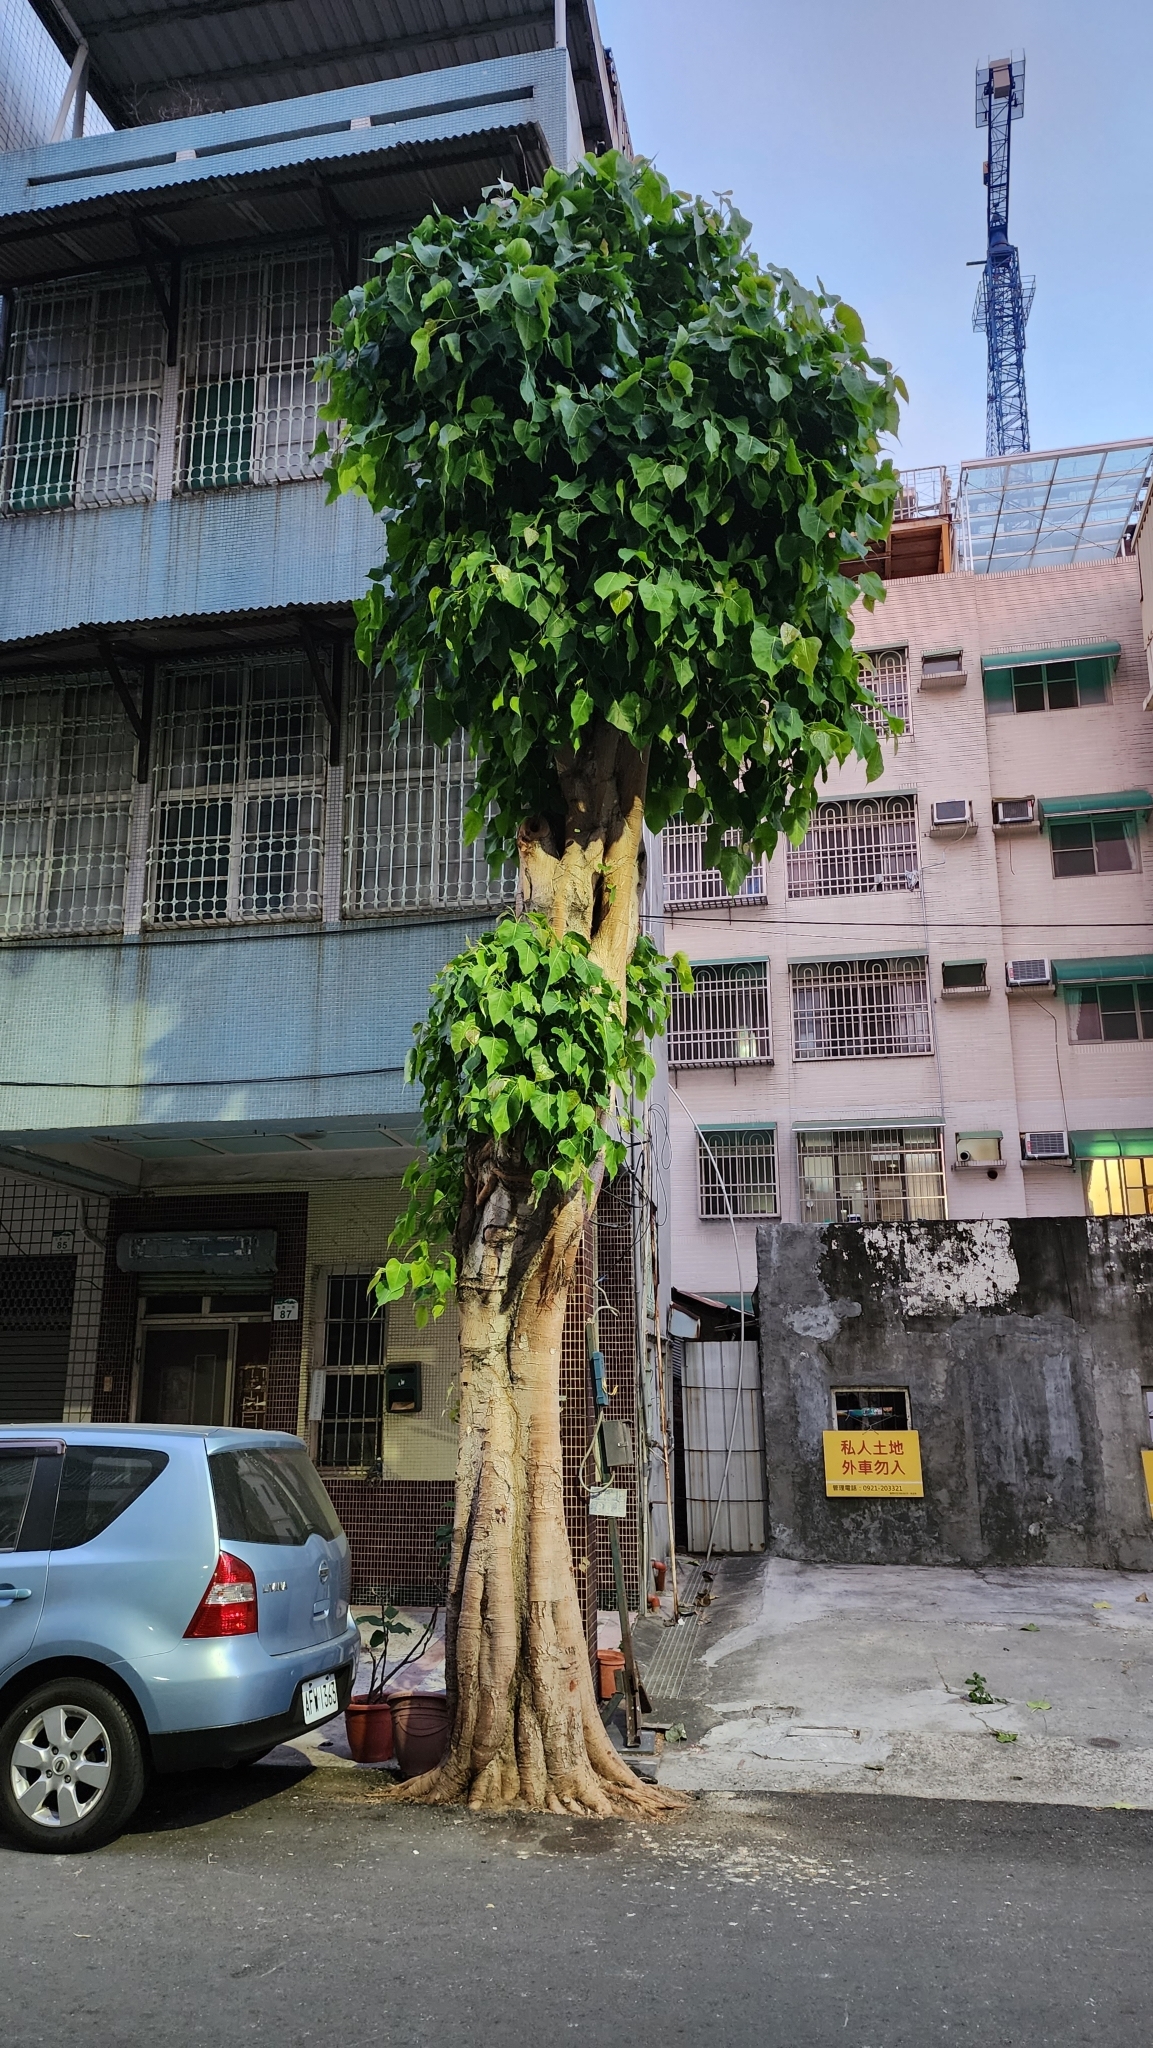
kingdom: Plantae
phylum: Tracheophyta
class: Magnoliopsida
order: Rosales
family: Moraceae
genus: Ficus
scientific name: Ficus religiosa
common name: Bodhi tree
